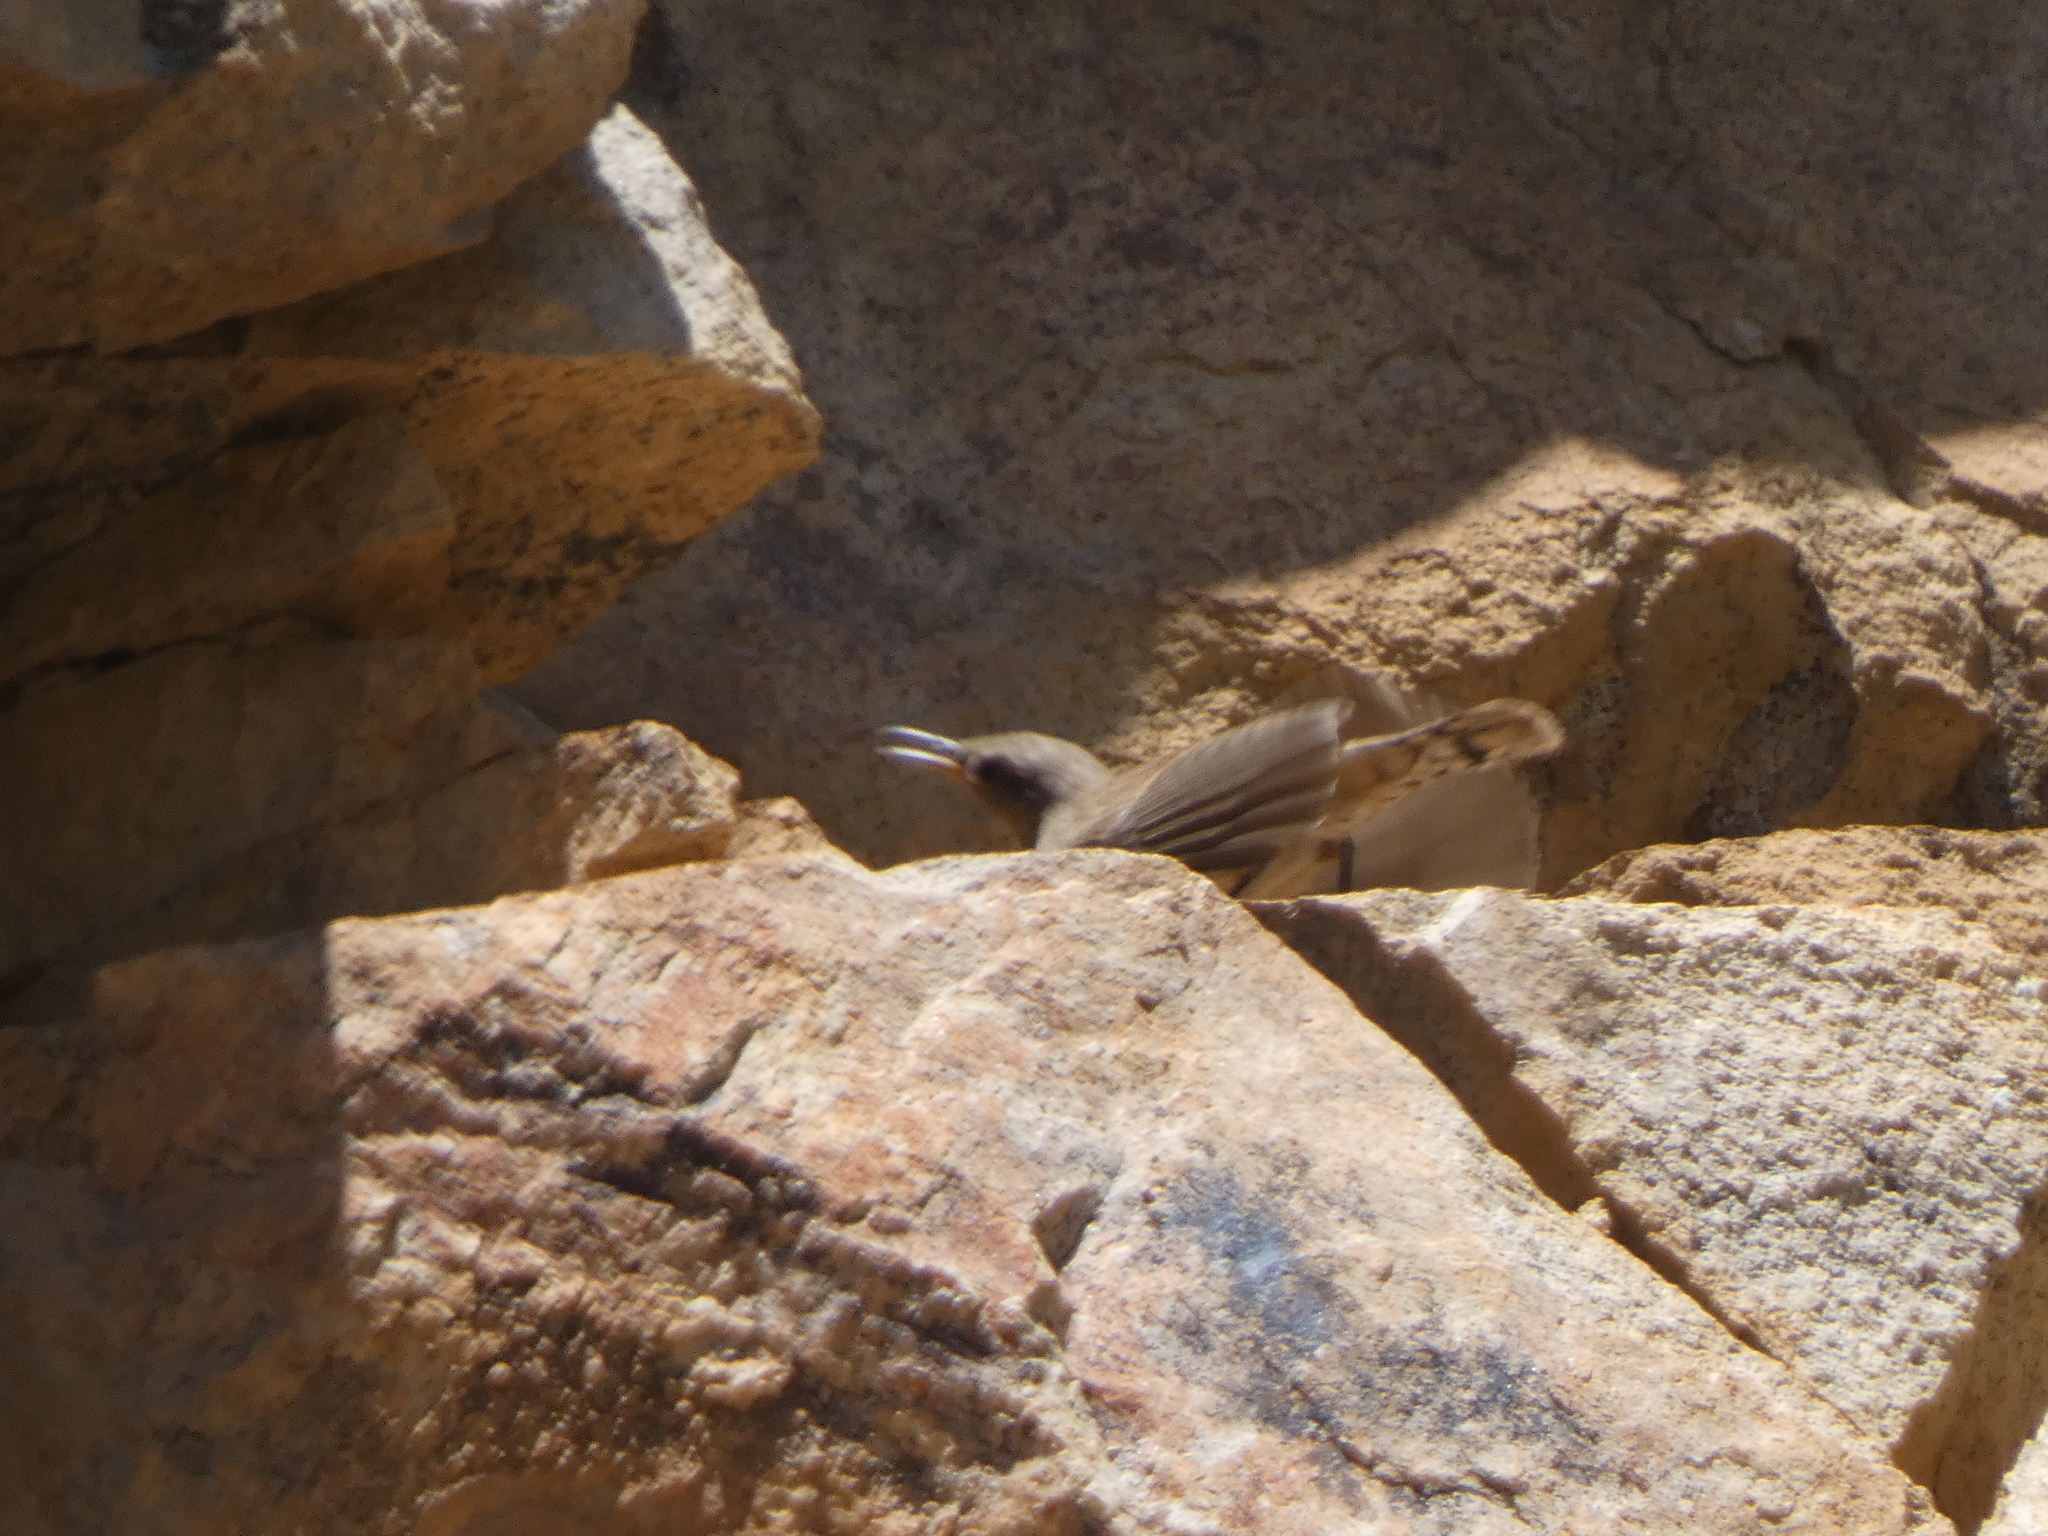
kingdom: Animalia
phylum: Chordata
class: Aves
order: Passeriformes
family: Troglodytidae
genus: Salpinctes
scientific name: Salpinctes obsoletus
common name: Rock wren
